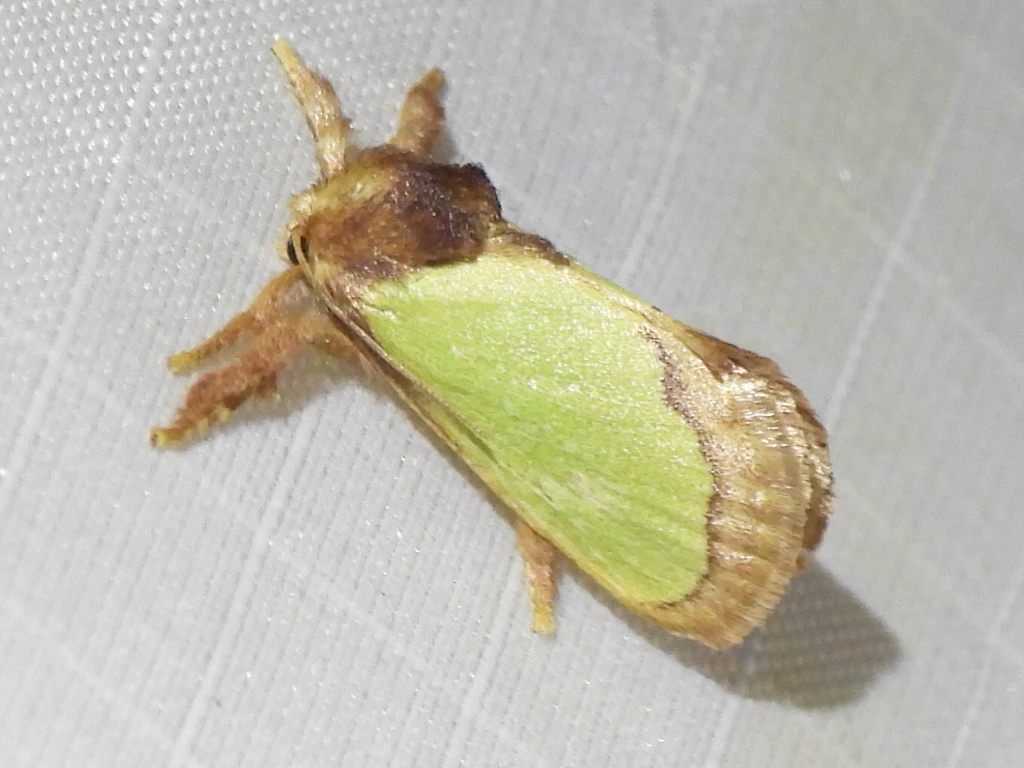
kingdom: Animalia
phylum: Arthropoda
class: Insecta
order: Lepidoptera
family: Limacodidae
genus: Euclea
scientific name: Euclea incisa
